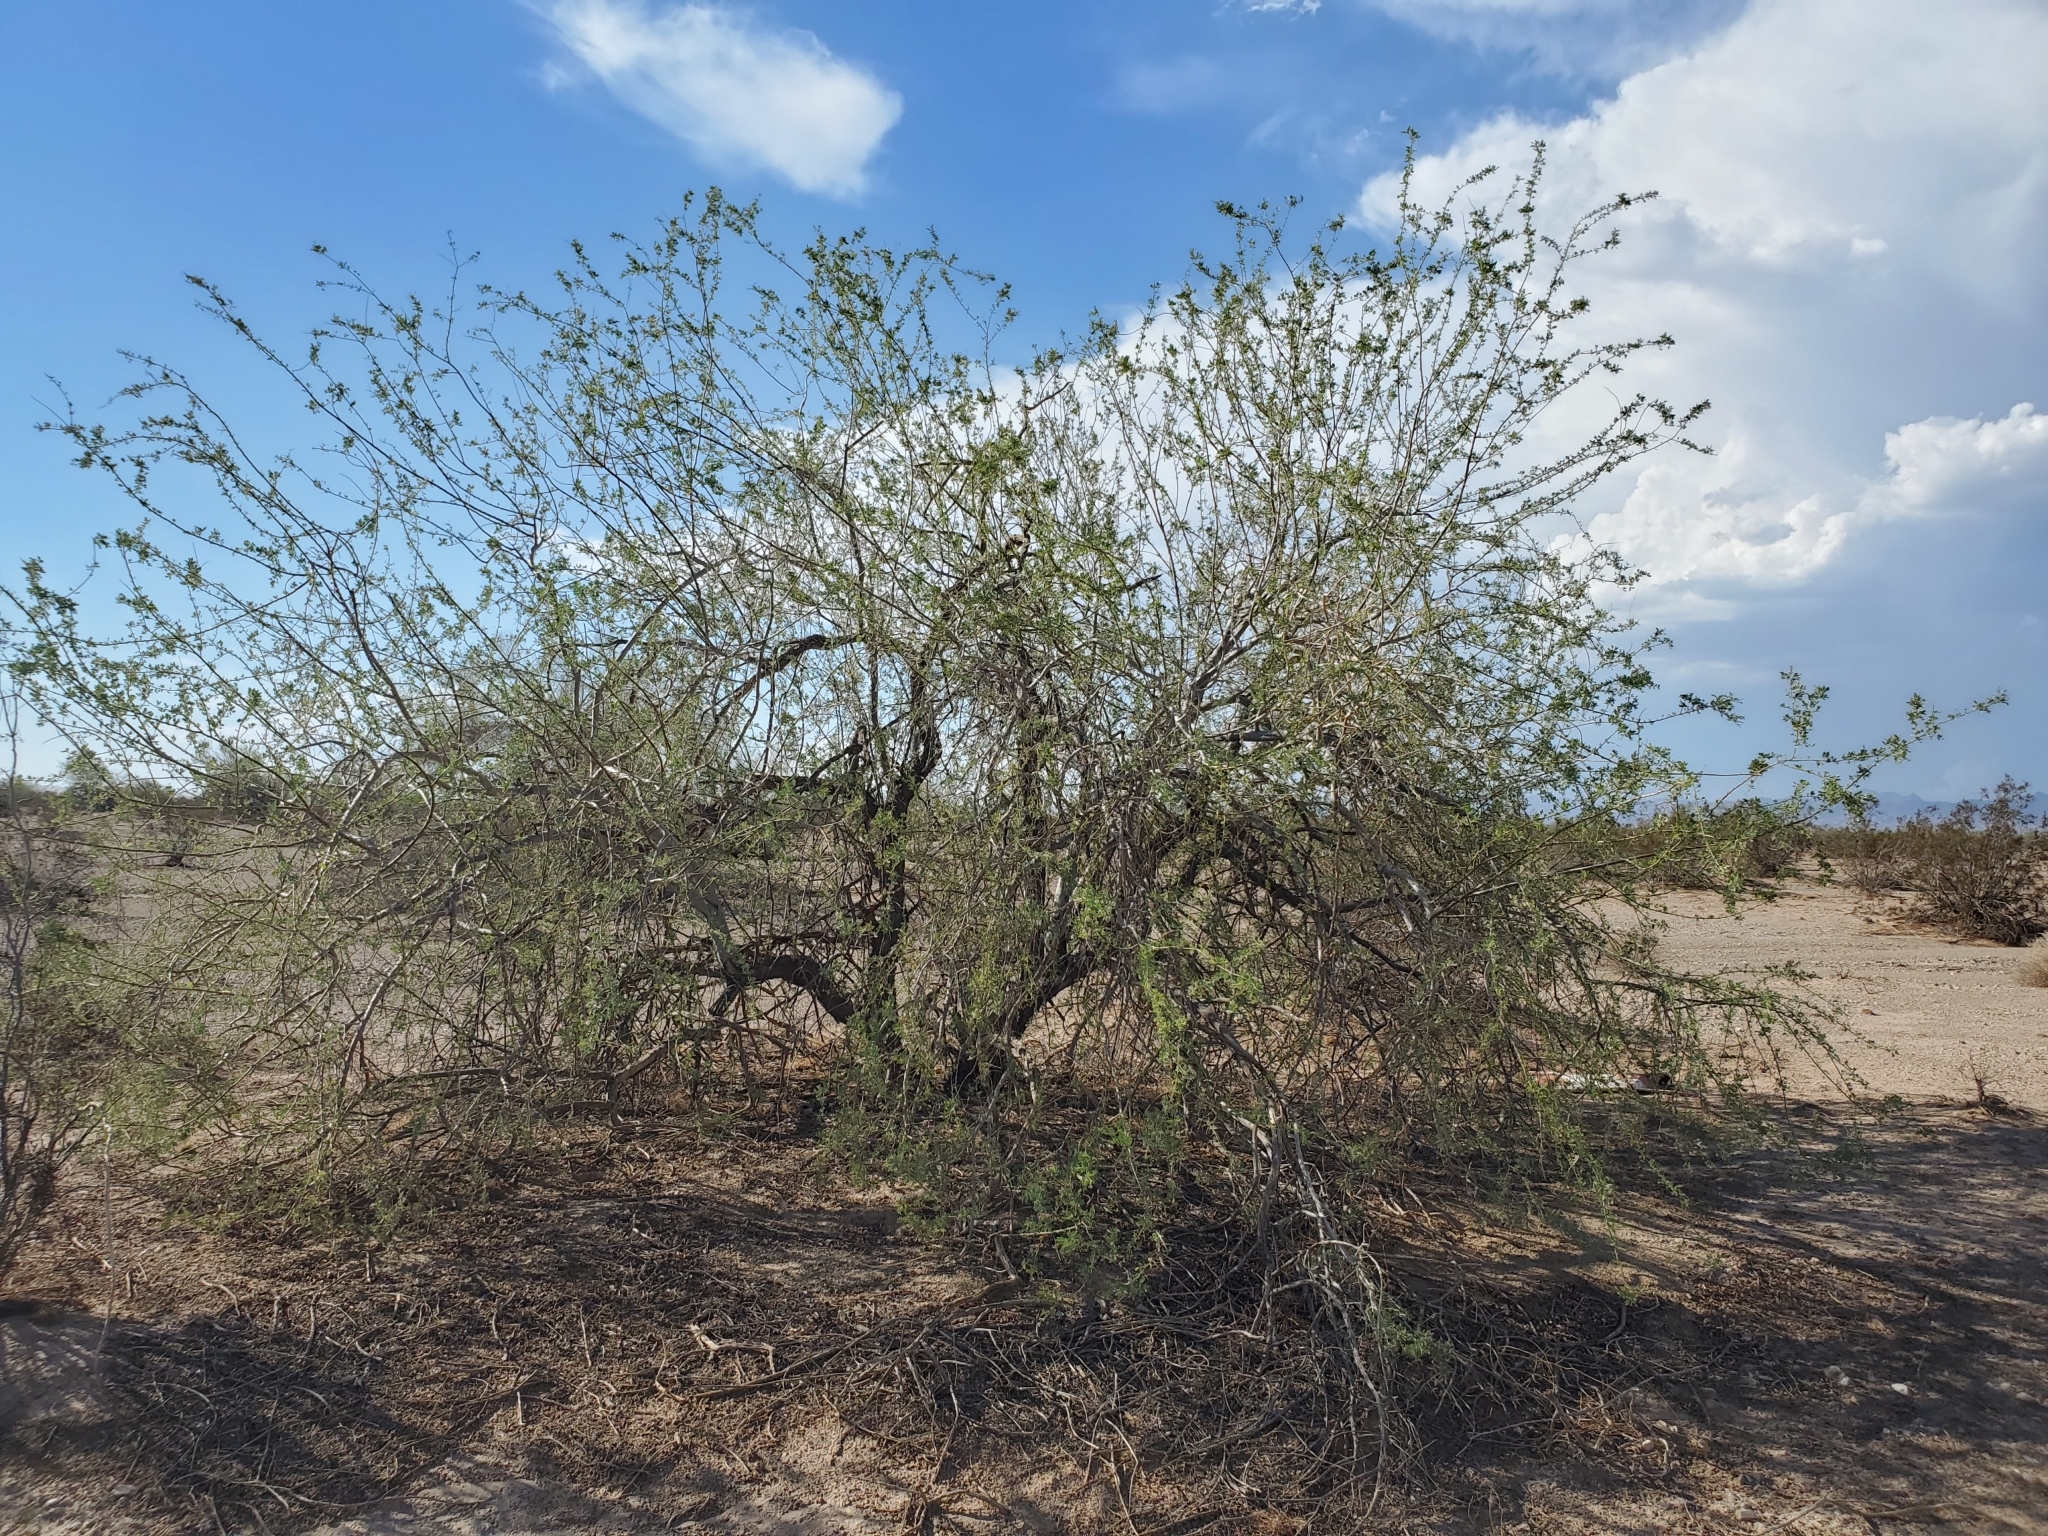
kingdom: Plantae
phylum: Tracheophyta
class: Magnoliopsida
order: Fabales
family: Fabaceae
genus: Olneya
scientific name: Olneya tesota
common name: Desert ironwood
